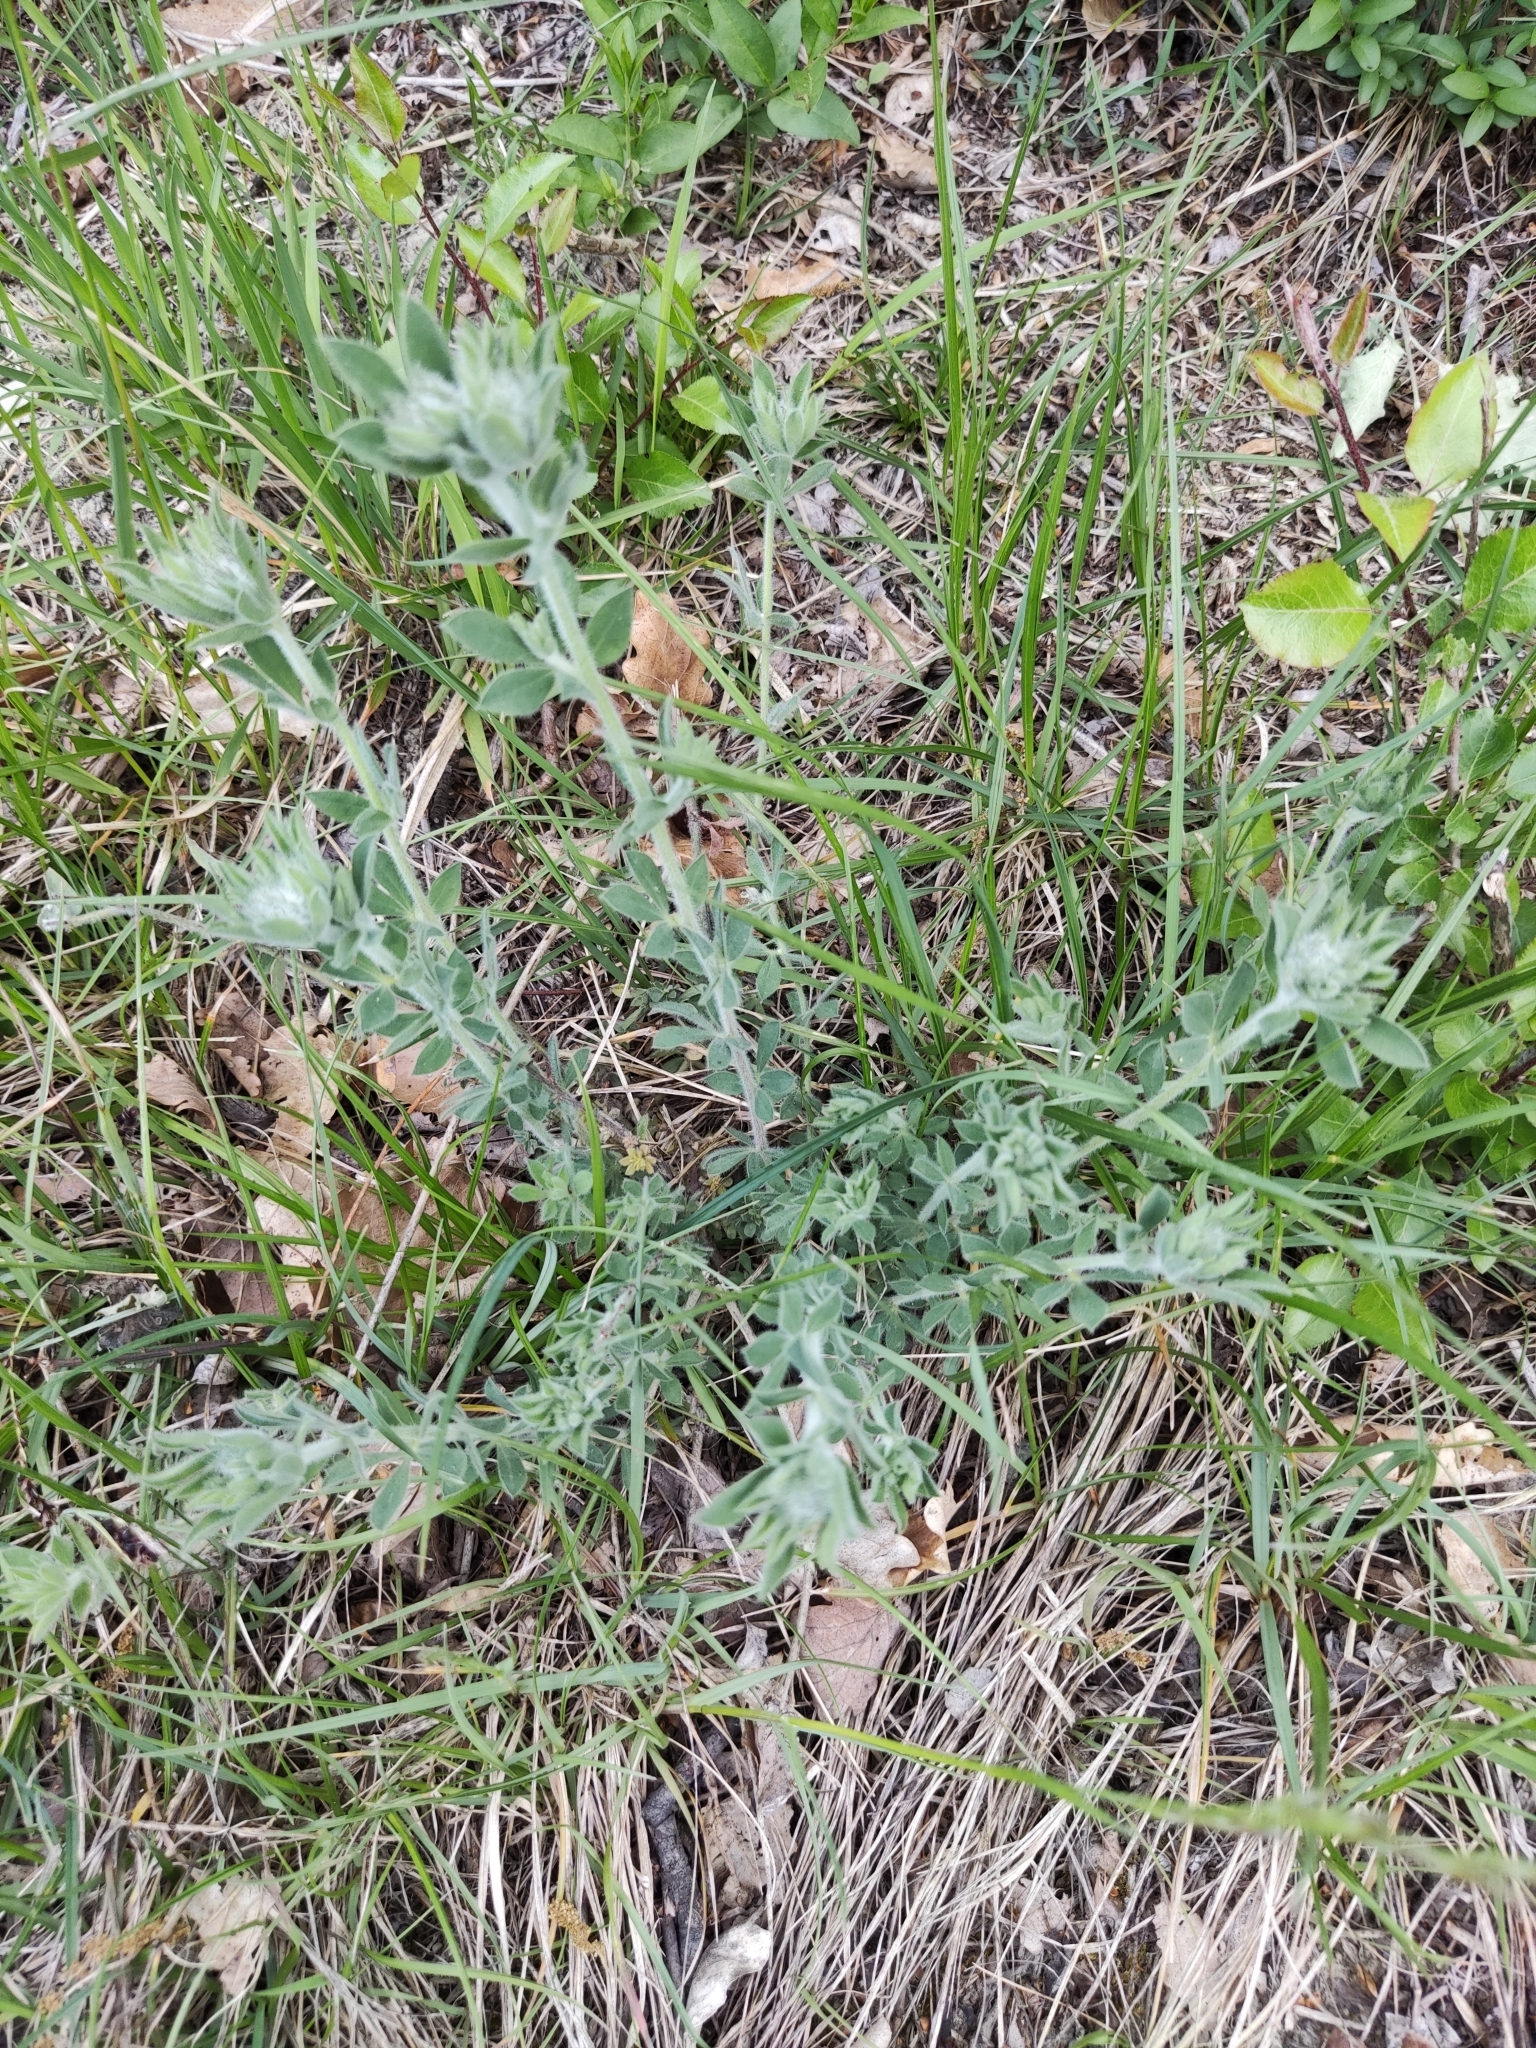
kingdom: Plantae
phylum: Tracheophyta
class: Magnoliopsida
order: Fabales
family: Fabaceae
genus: Lotus
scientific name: Lotus hirsutus
